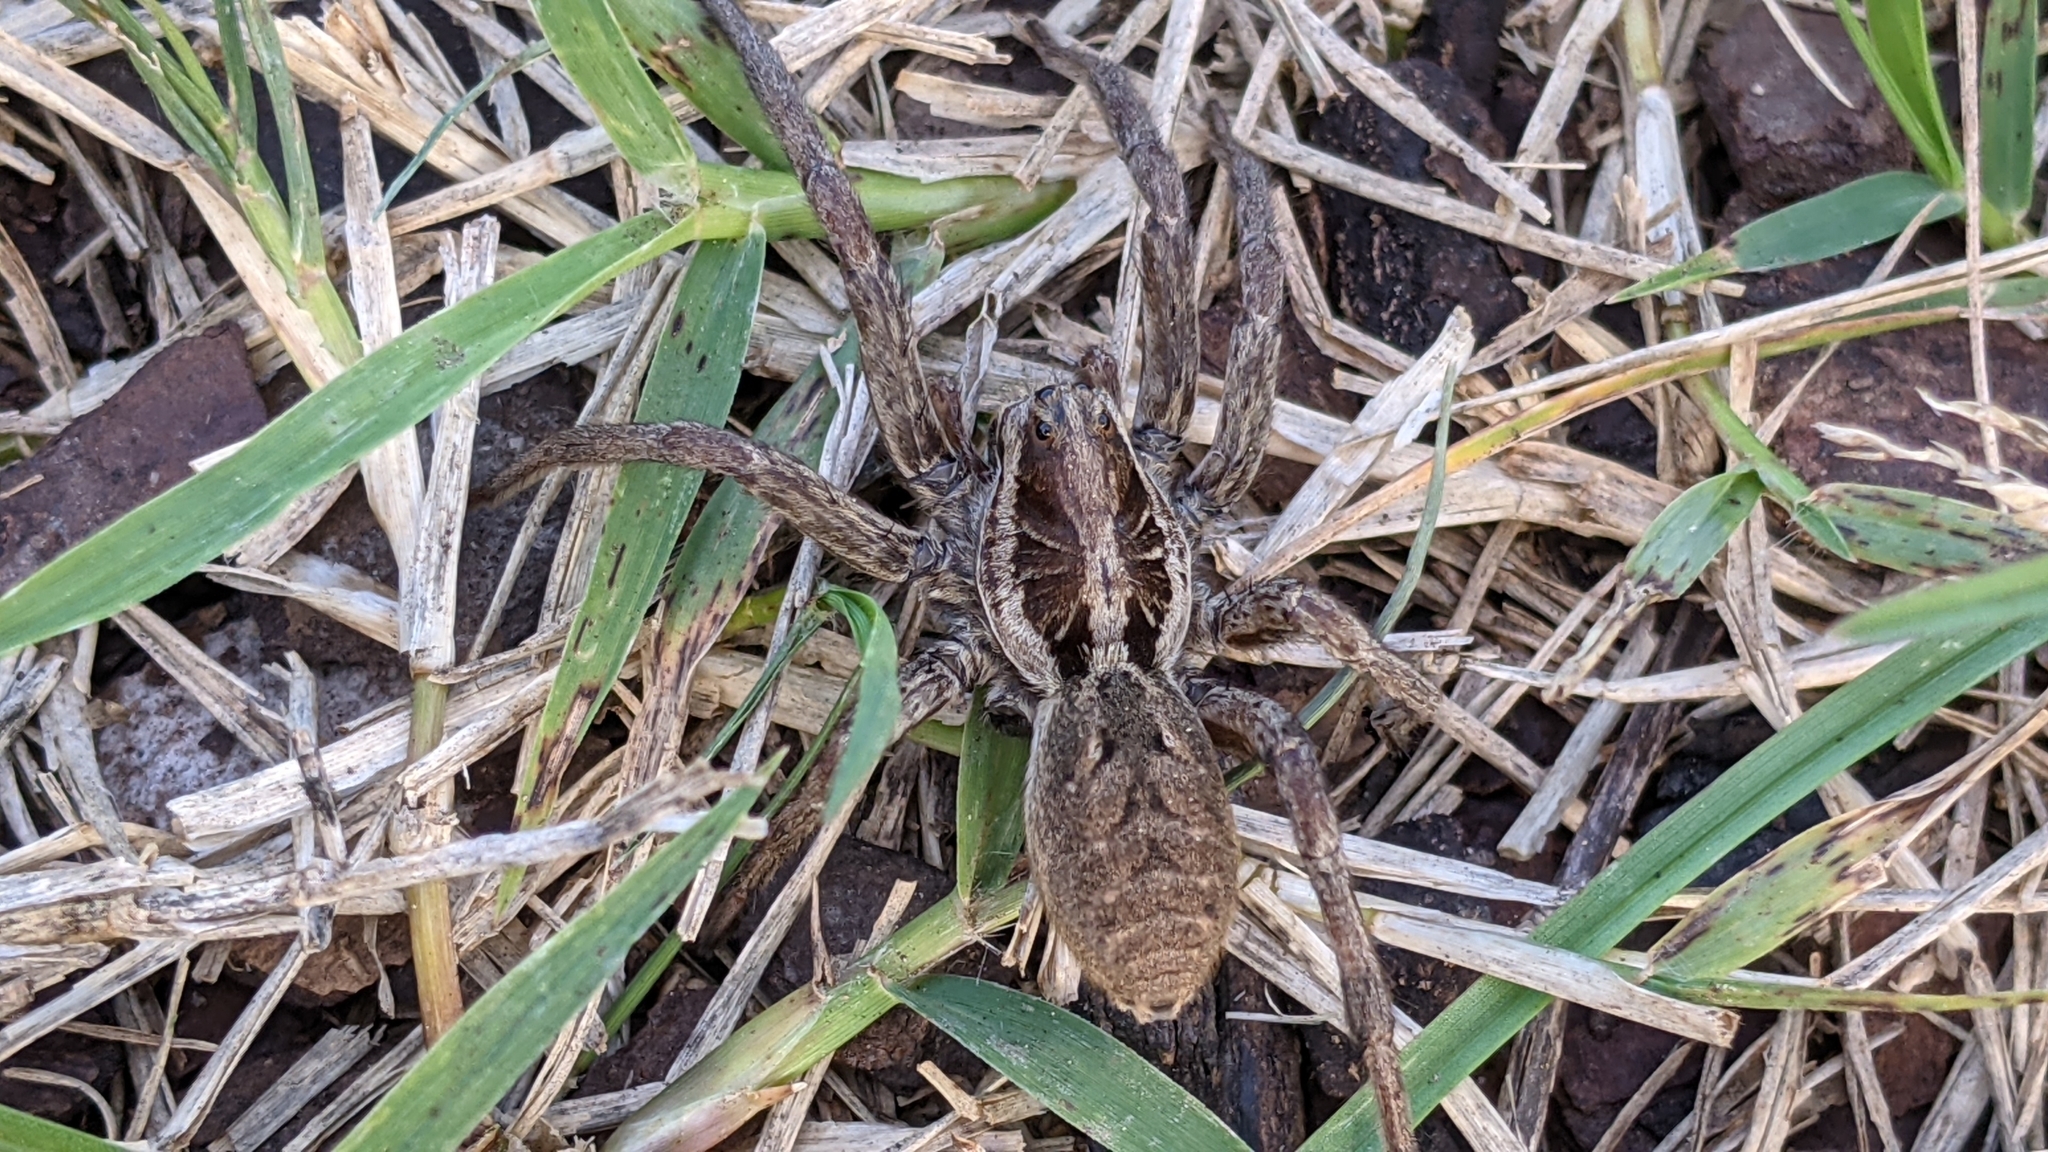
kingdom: Animalia
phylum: Arthropoda
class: Arachnida
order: Araneae
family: Lycosidae
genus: Hogna
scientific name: Hogna radiata
